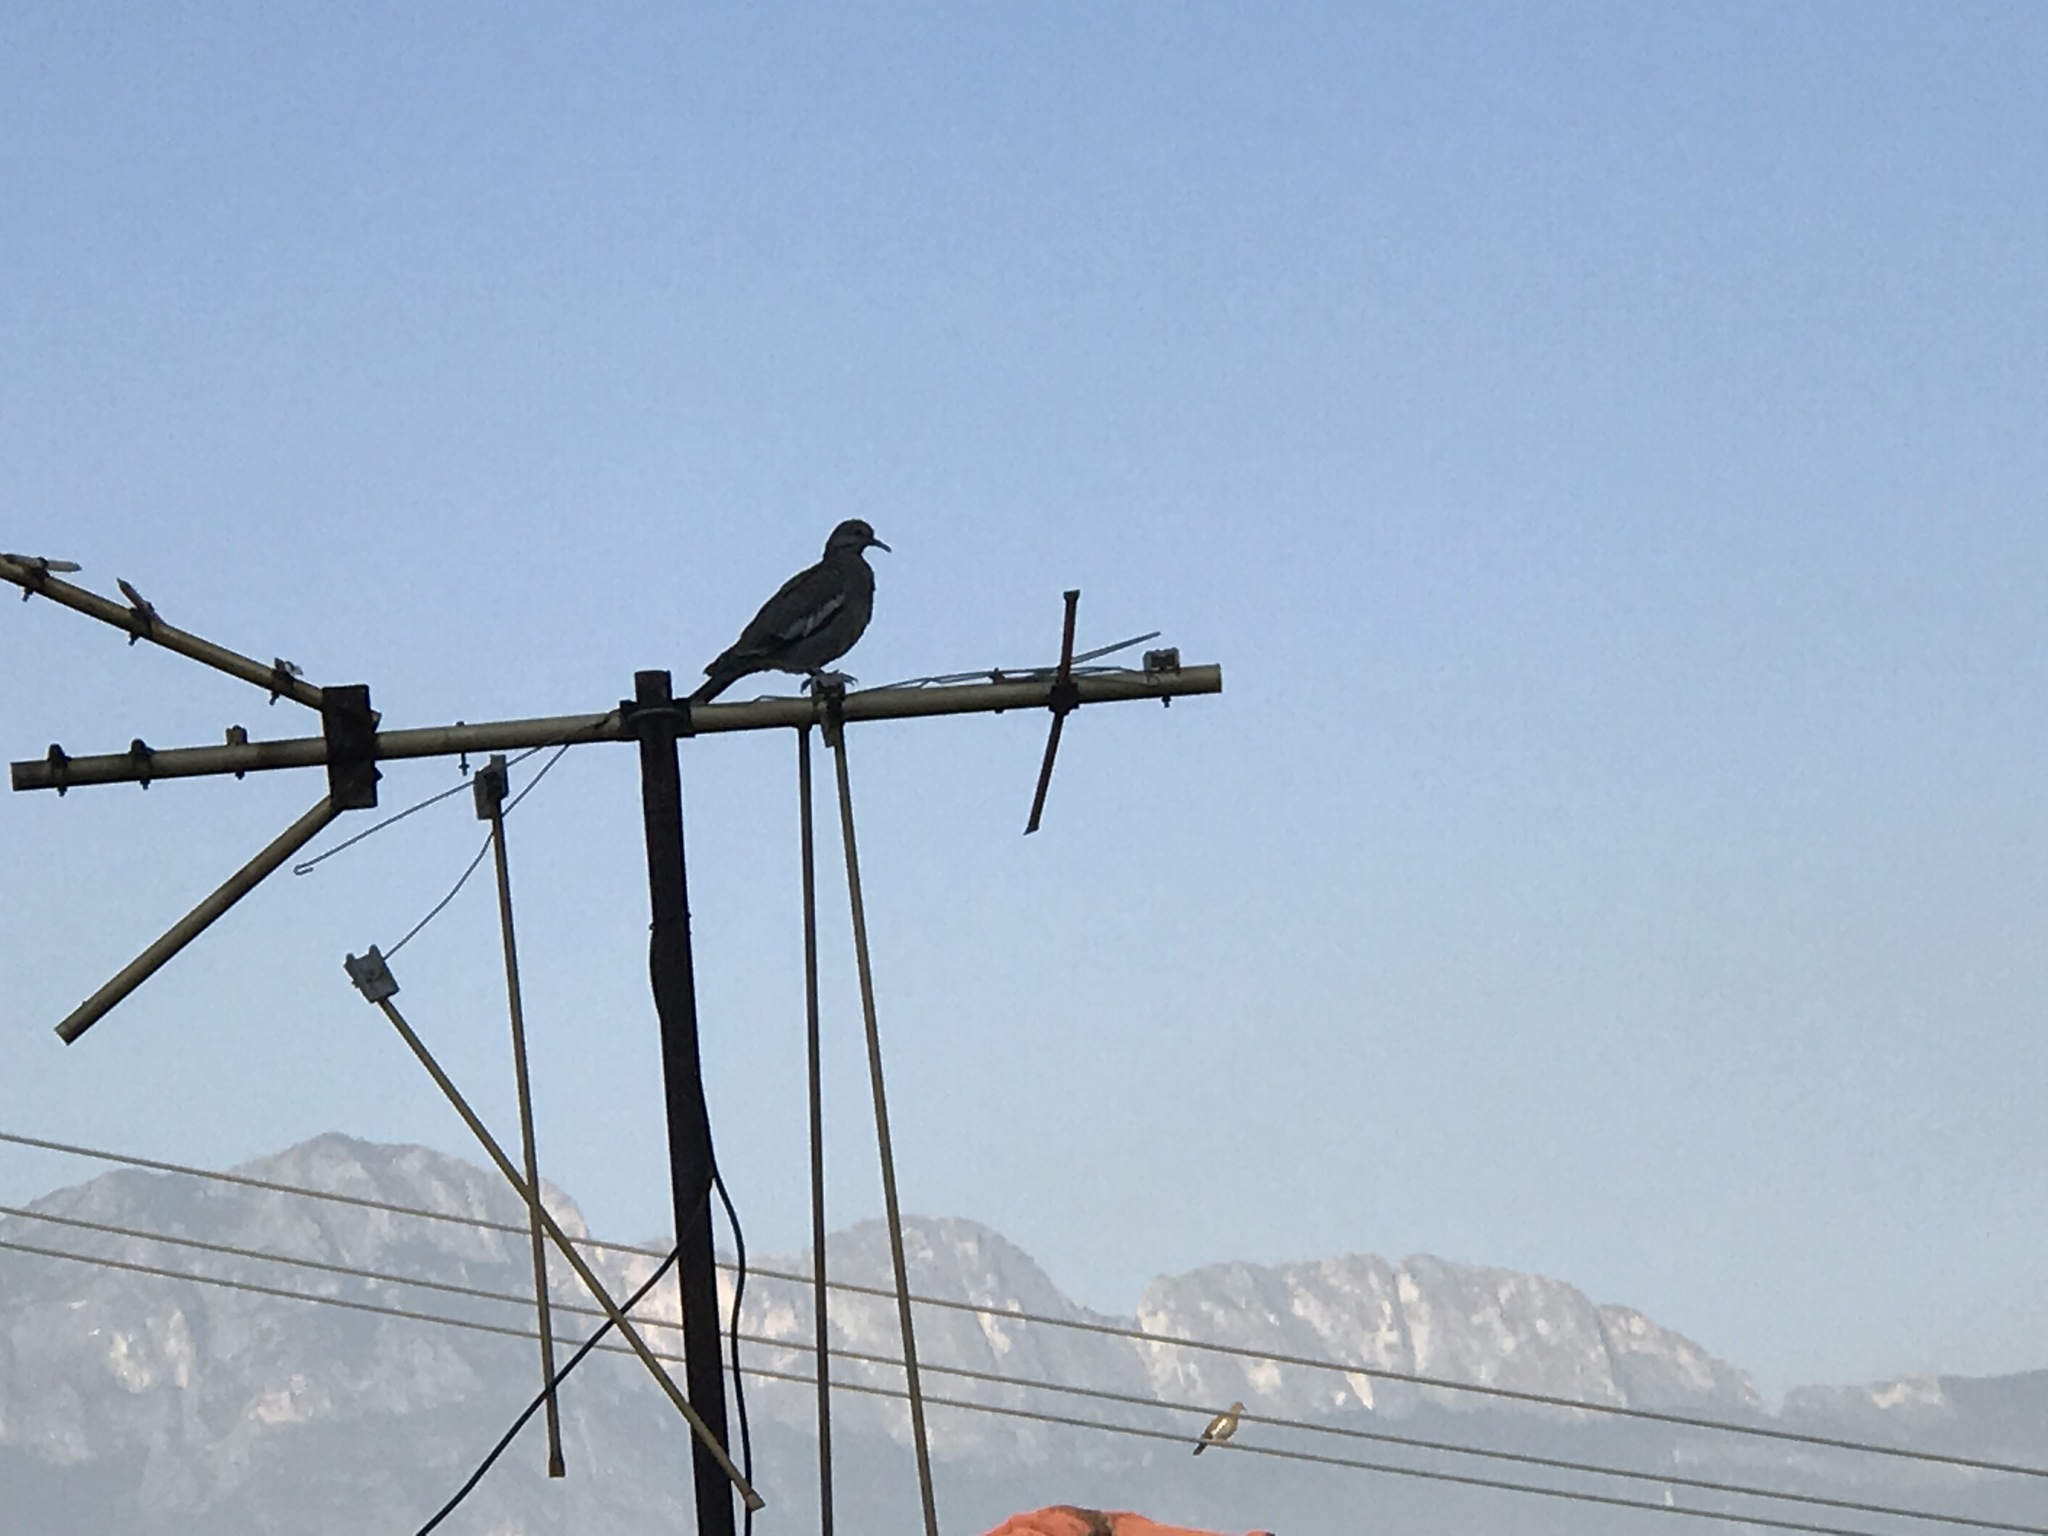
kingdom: Animalia
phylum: Chordata
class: Aves
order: Columbiformes
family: Columbidae
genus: Zenaida
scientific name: Zenaida asiatica
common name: White-winged dove
